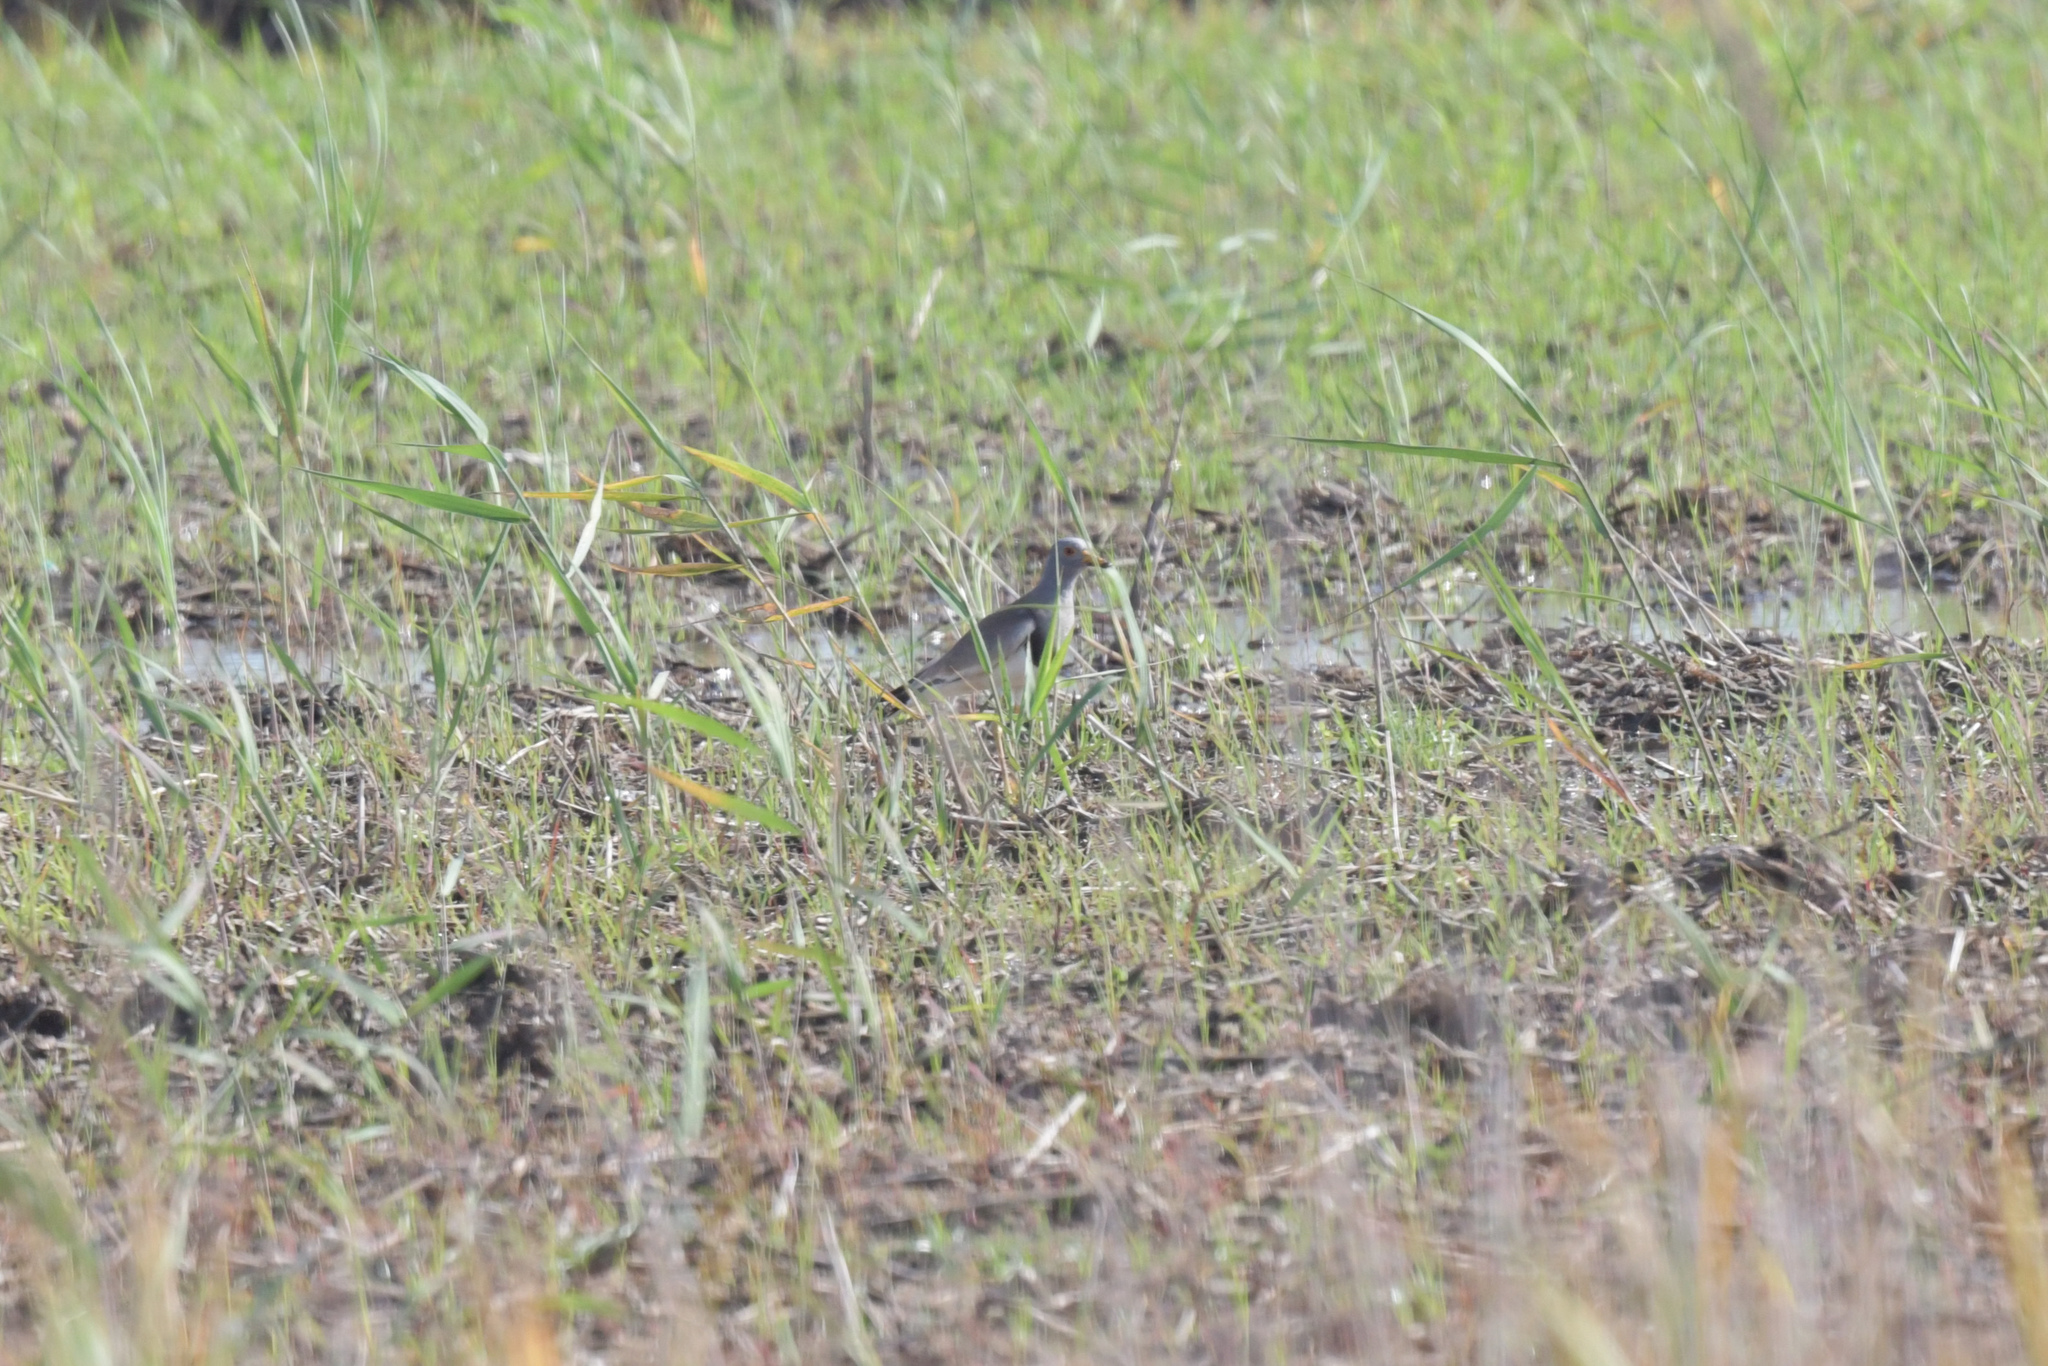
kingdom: Animalia
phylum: Chordata
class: Aves
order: Charadriiformes
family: Charadriidae
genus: Vanellus
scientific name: Vanellus cinereus
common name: Grey-headed lapwing
